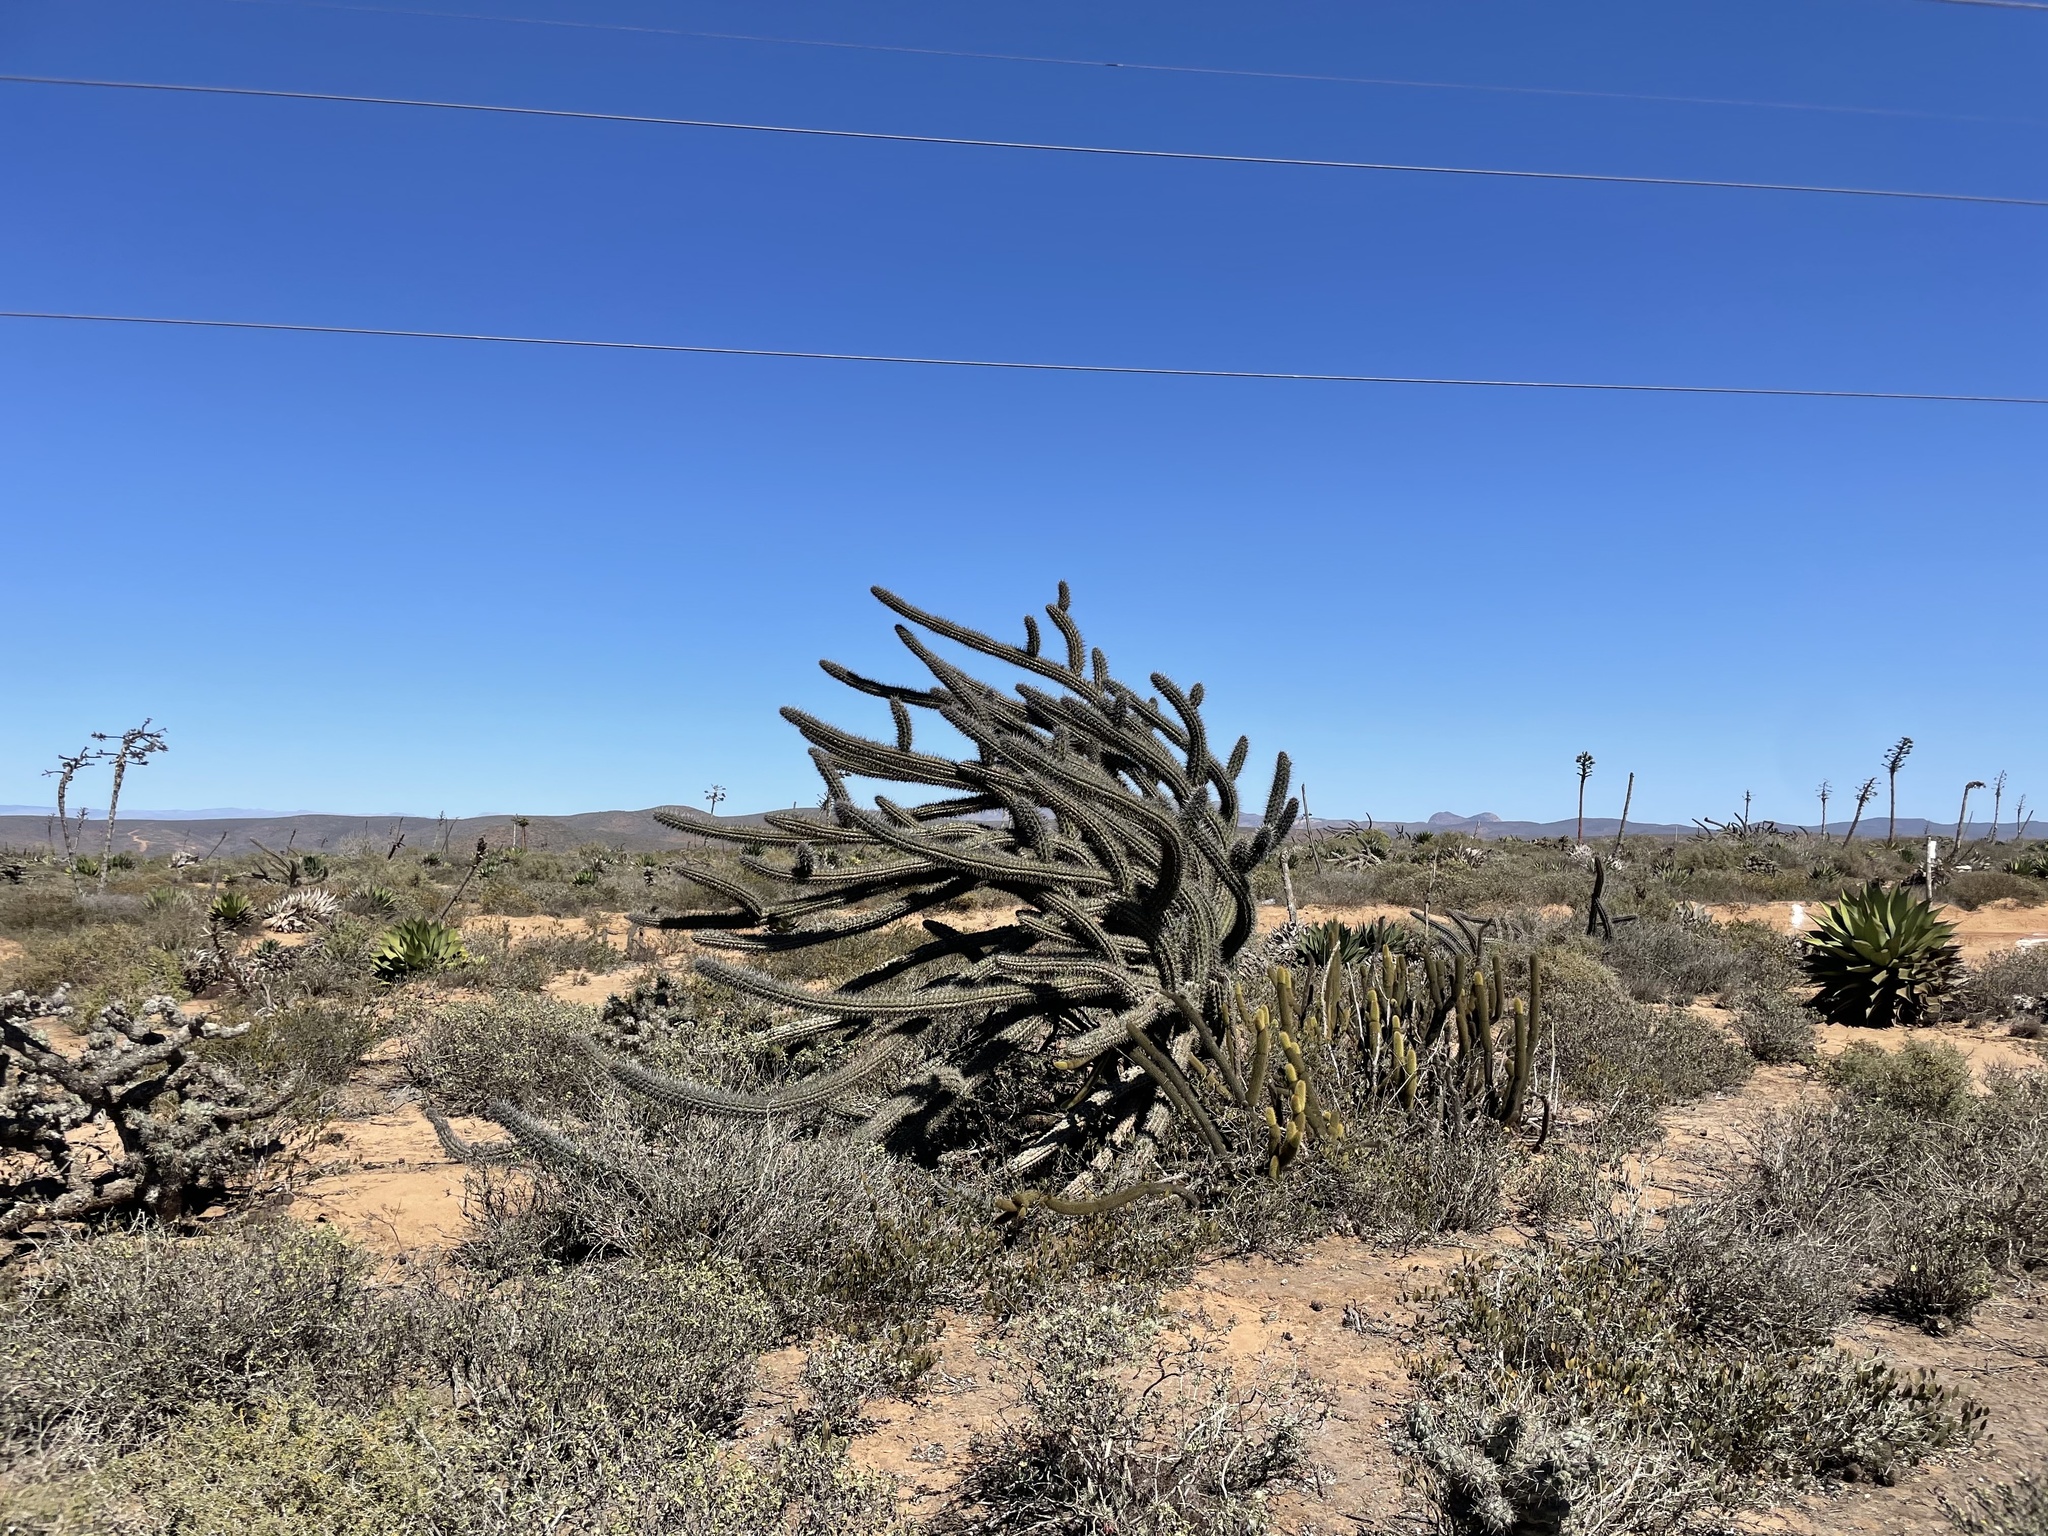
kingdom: Plantae
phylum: Tracheophyta
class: Magnoliopsida
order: Caryophyllales
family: Cactaceae
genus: Stenocereus
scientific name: Stenocereus gummosus
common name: Dagger cactus
